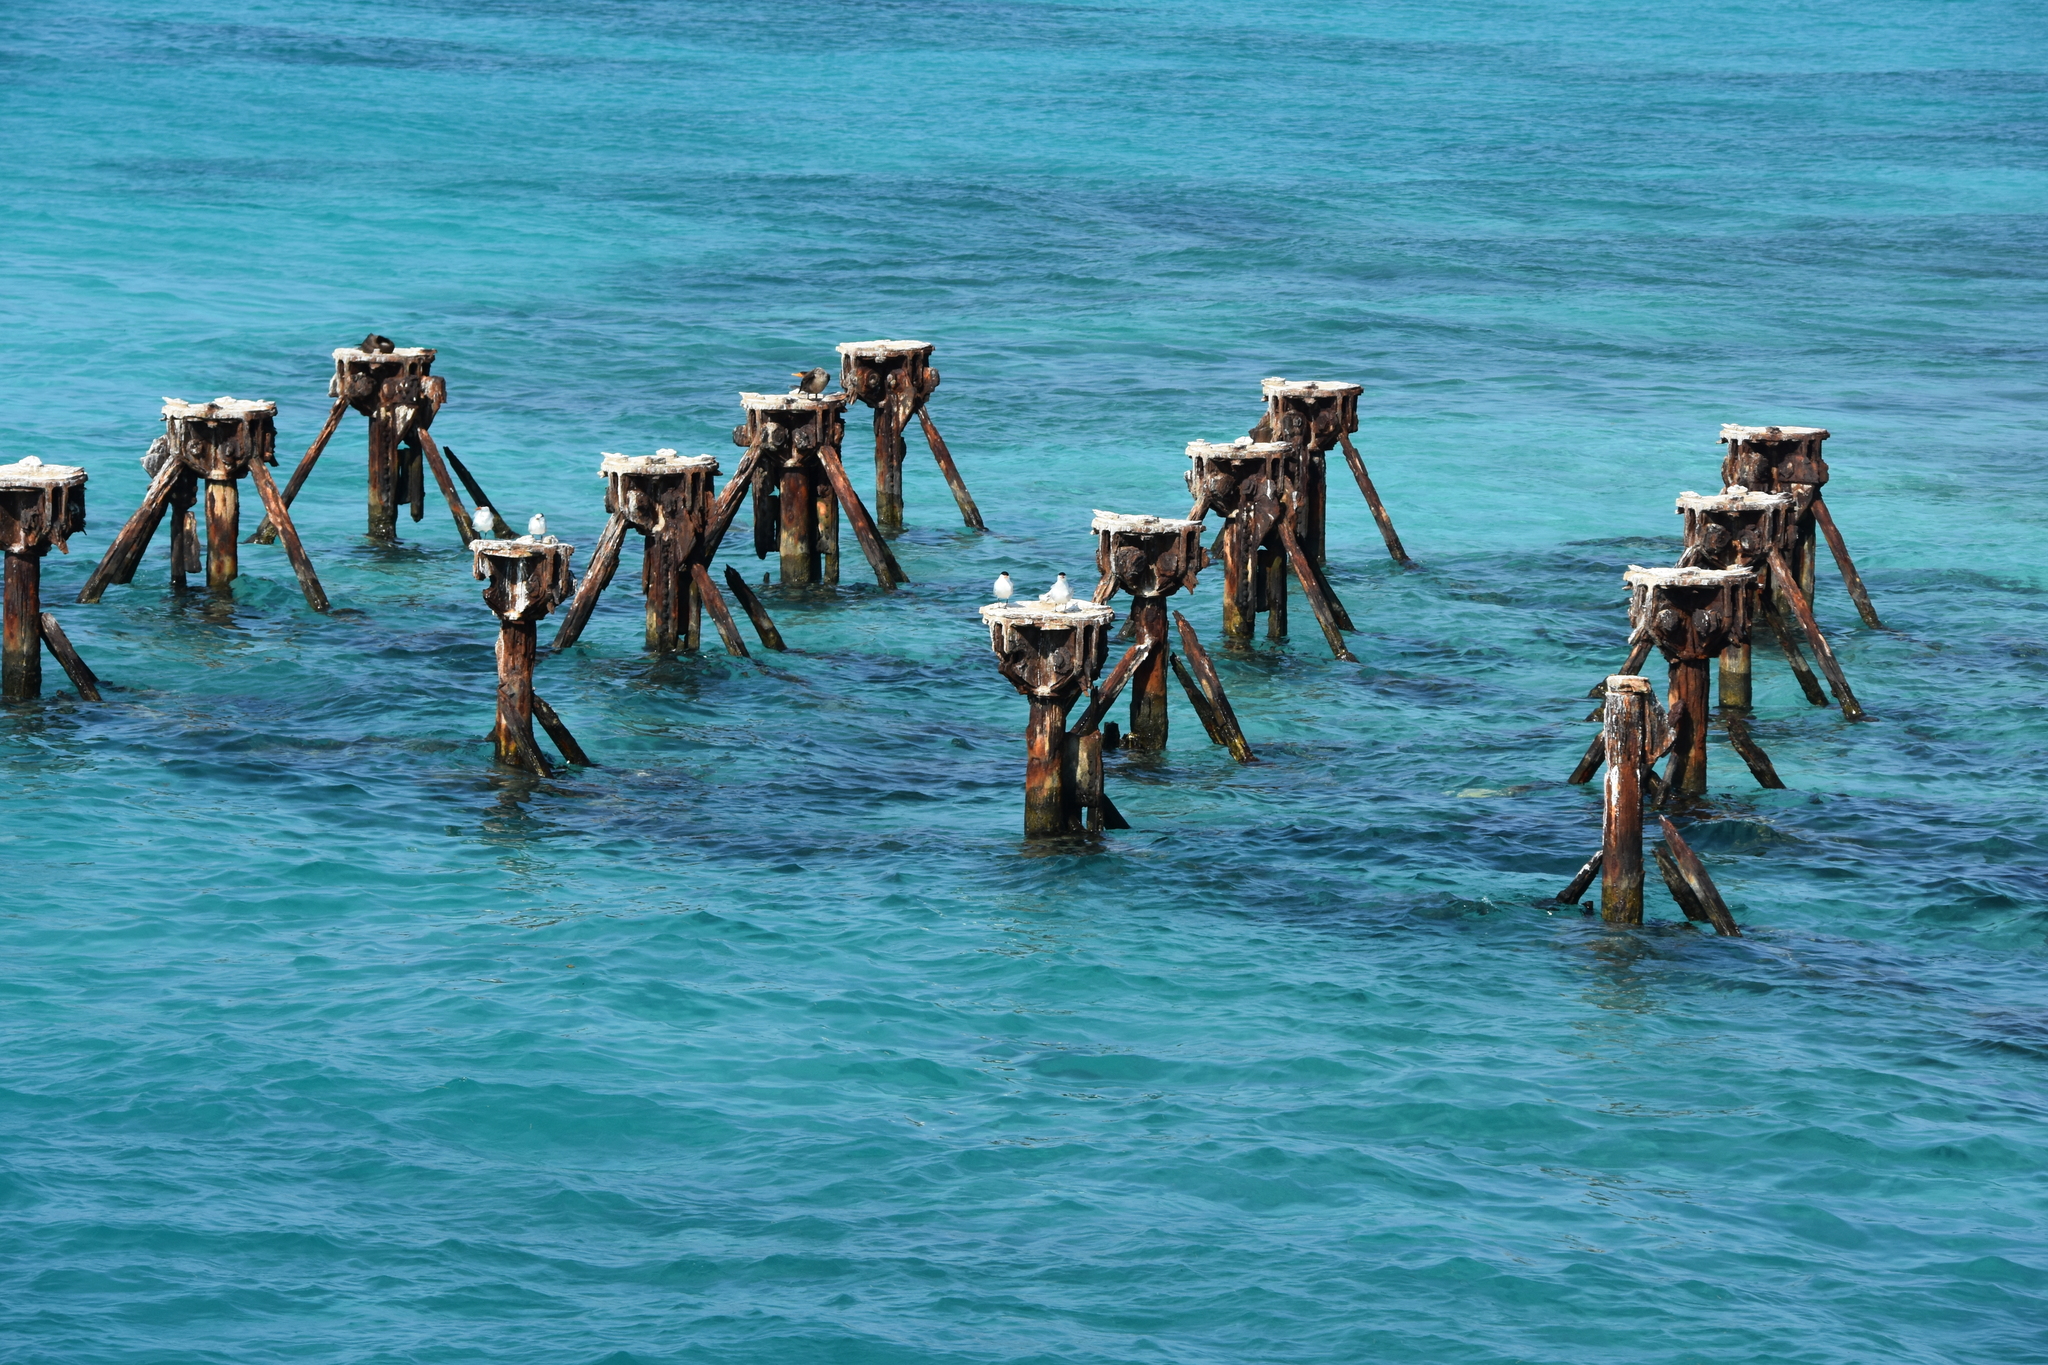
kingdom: Animalia
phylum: Chordata
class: Aves
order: Suliformes
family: Phalacrocoracidae
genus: Phalacrocorax
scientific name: Phalacrocorax auritus
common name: Double-crested cormorant
